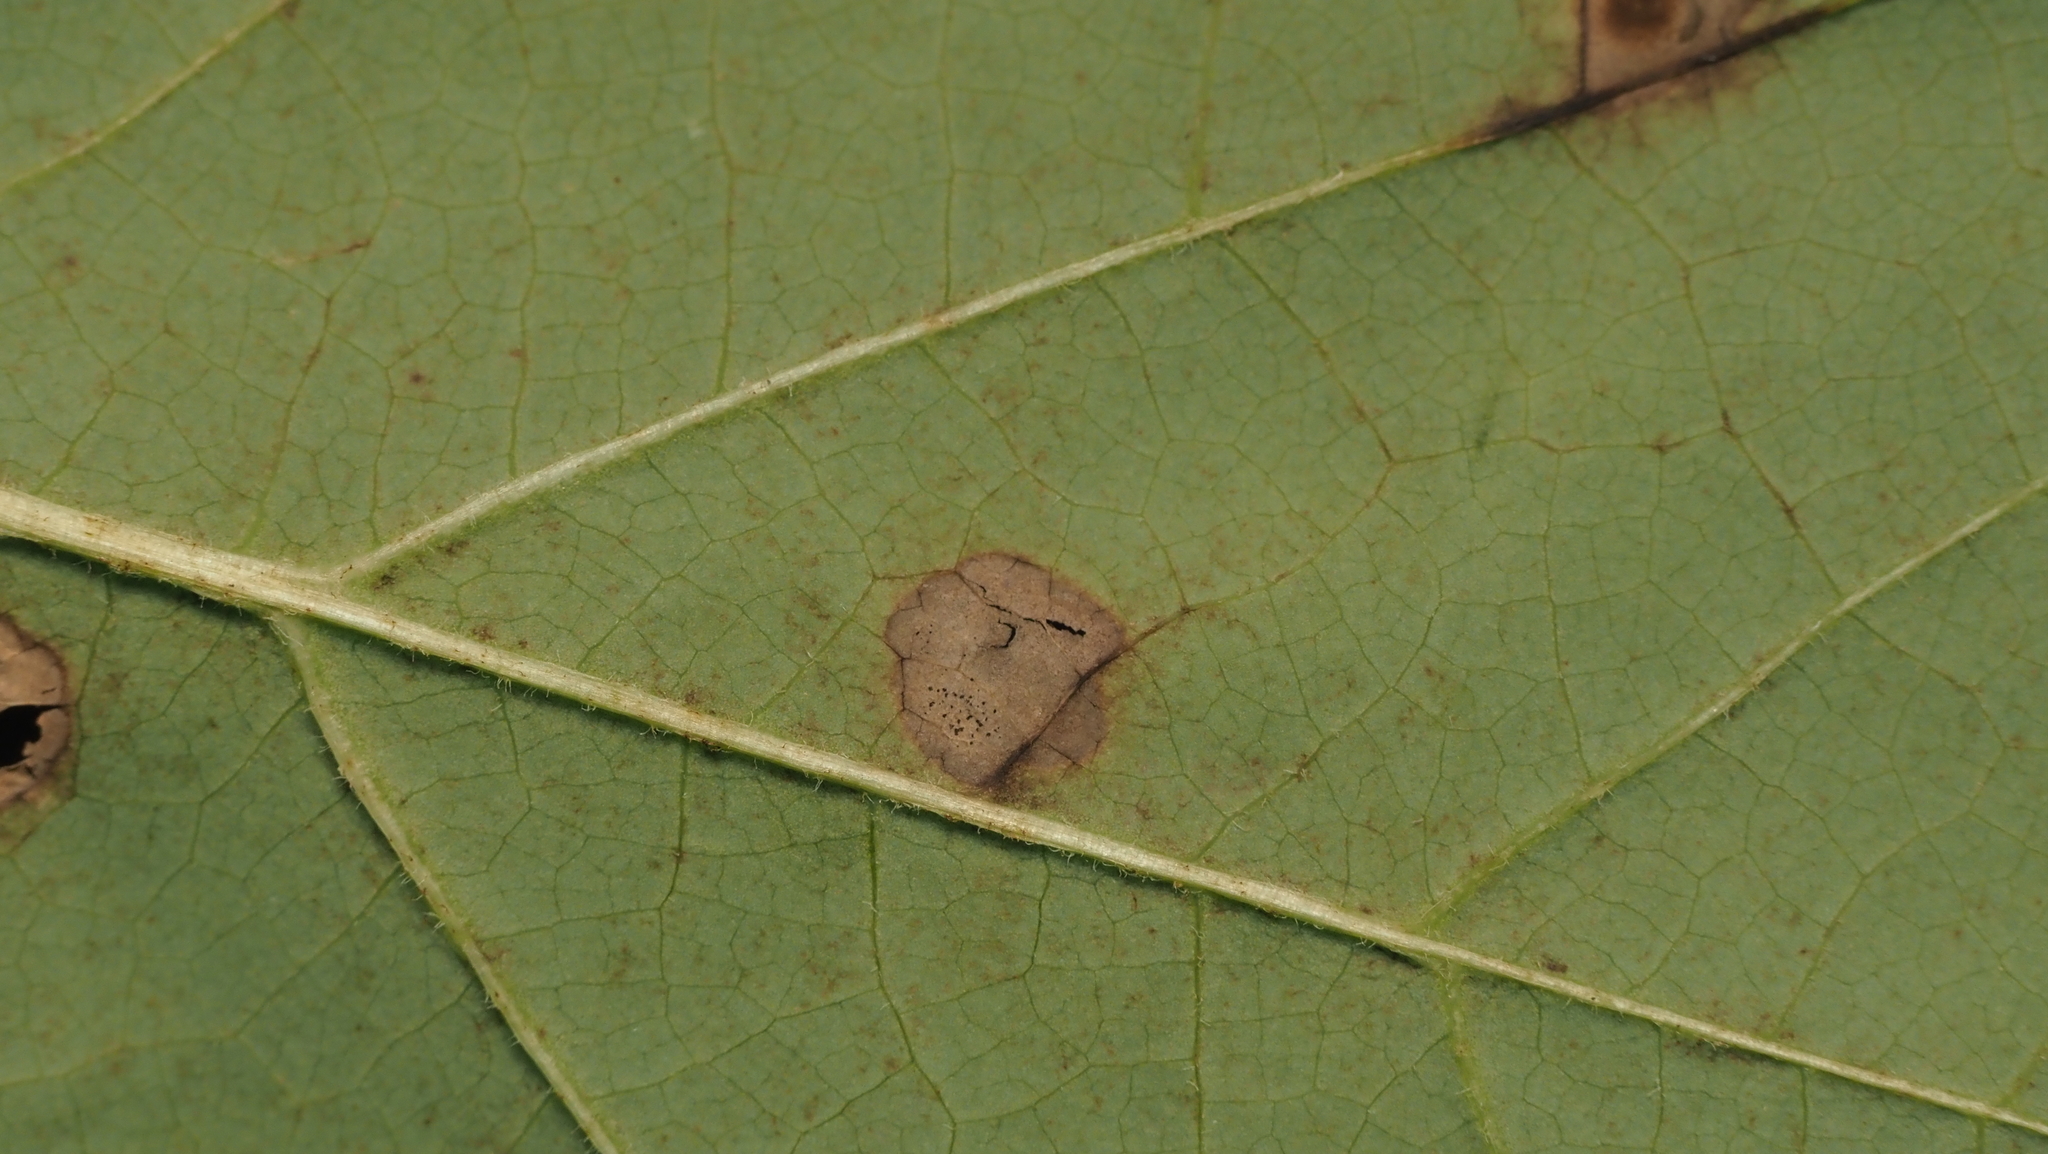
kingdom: Animalia
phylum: Arthropoda
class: Insecta
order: Diptera
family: Cecidomyiidae
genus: Resseliella
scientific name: Resseliella liriodendri
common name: Tulip tree leaf spot gall midge
